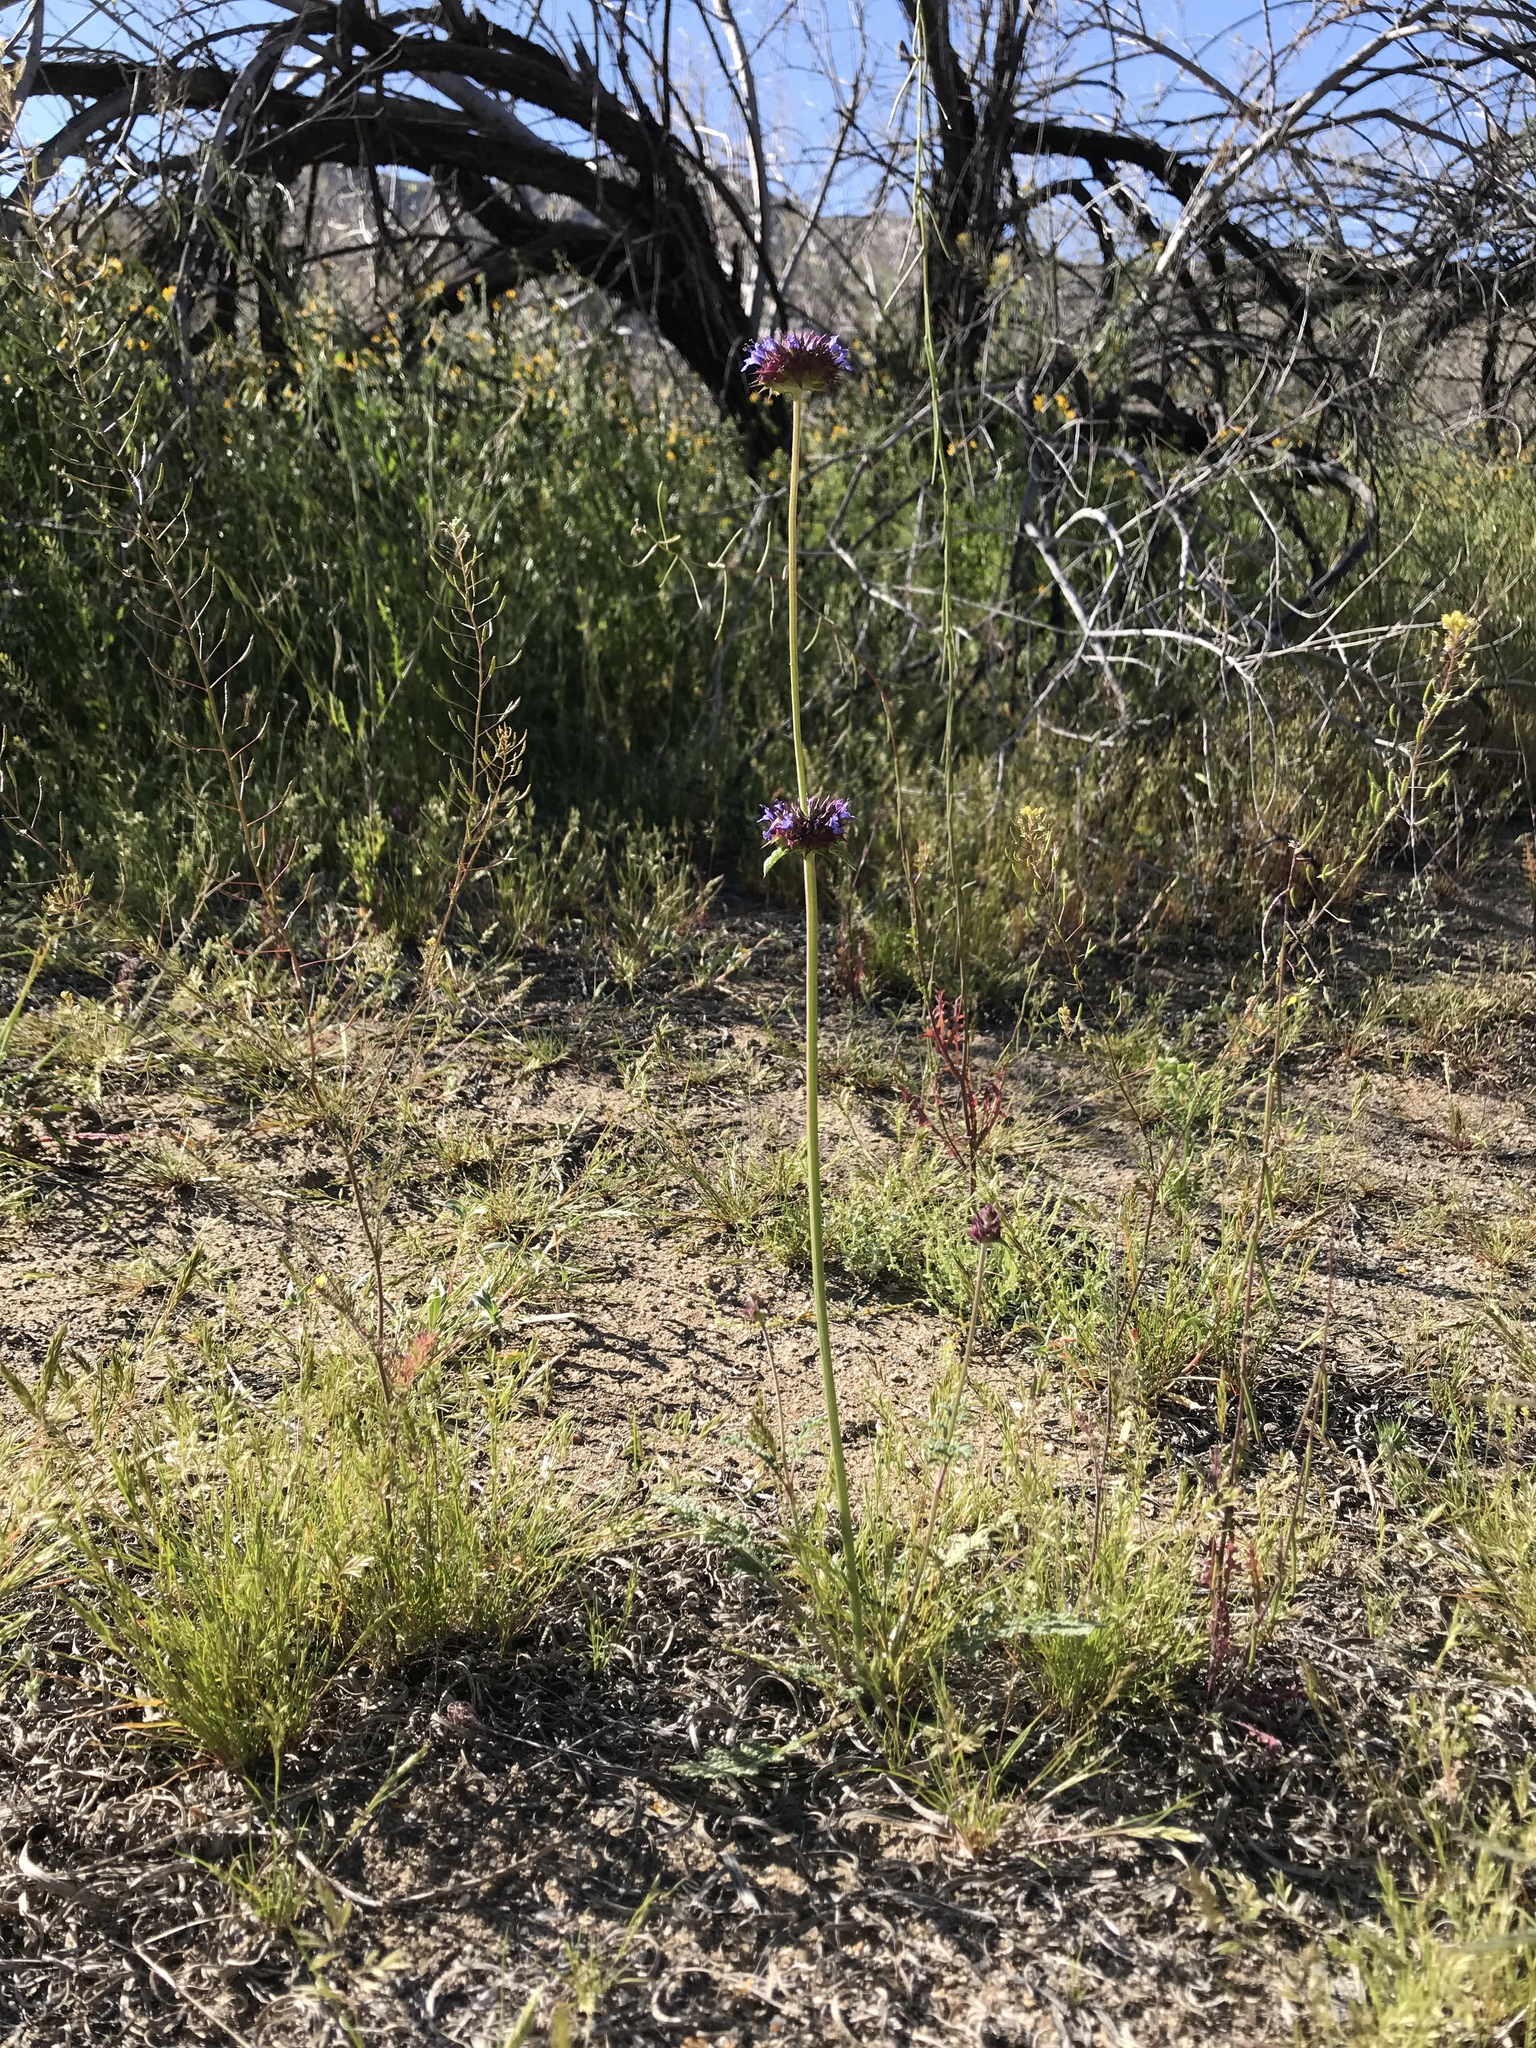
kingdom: Plantae
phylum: Tracheophyta
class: Magnoliopsida
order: Lamiales
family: Lamiaceae
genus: Salvia
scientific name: Salvia columbariae
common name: Chia
